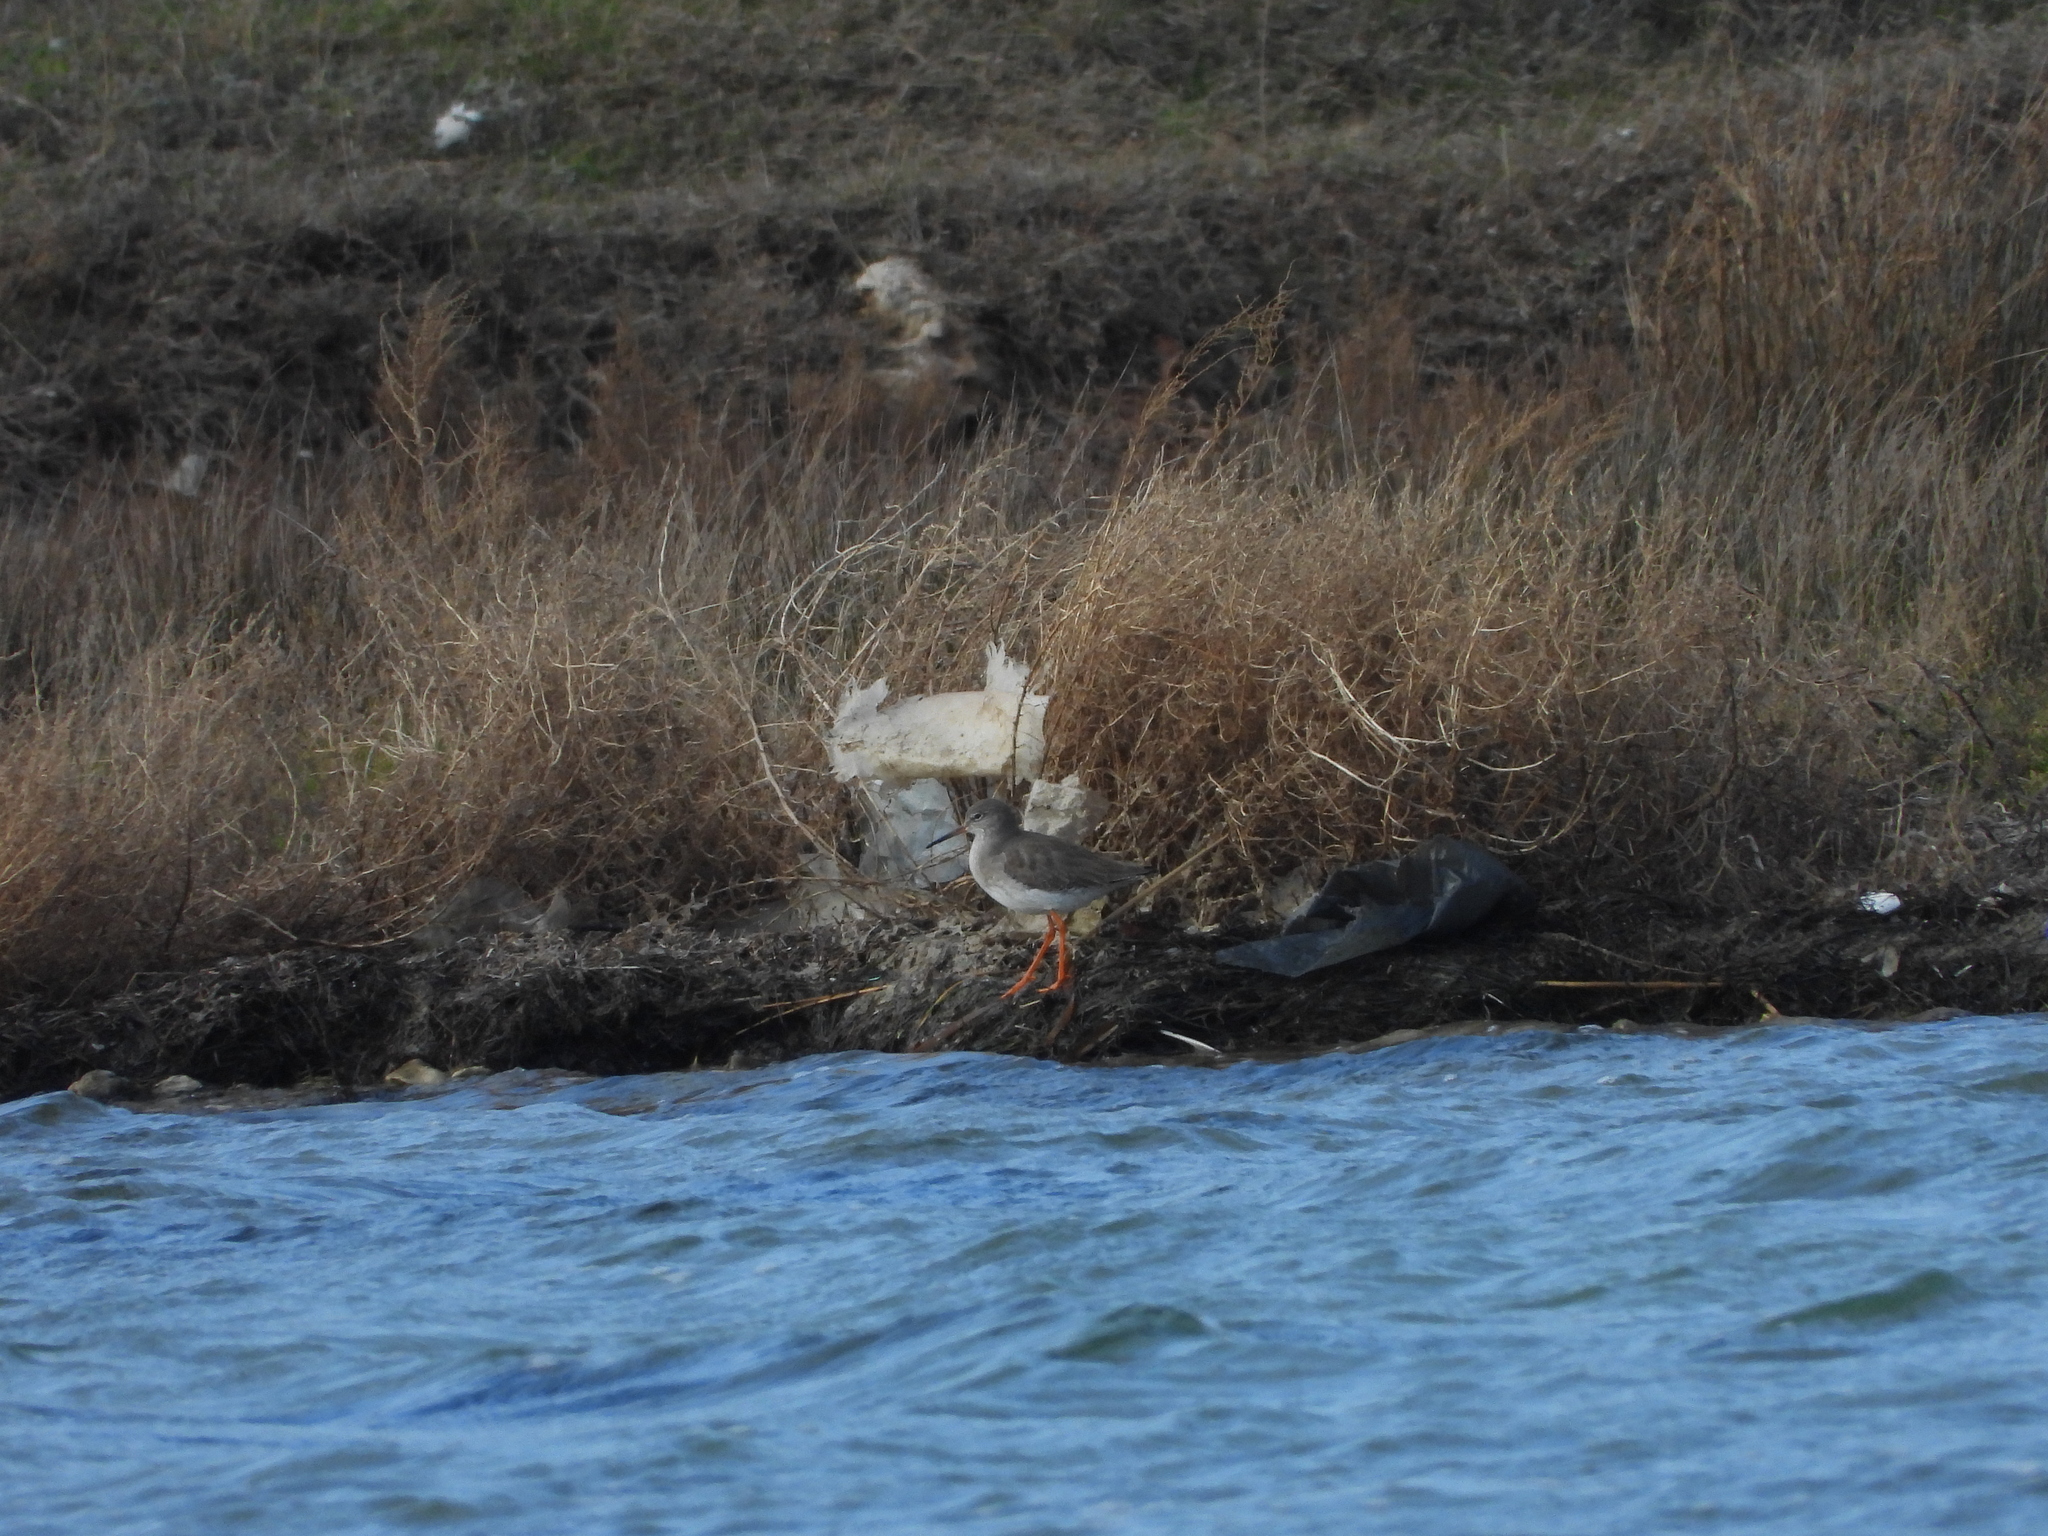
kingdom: Animalia
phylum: Chordata
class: Aves
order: Charadriiformes
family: Scolopacidae
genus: Tringa
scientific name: Tringa totanus
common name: Common redshank
